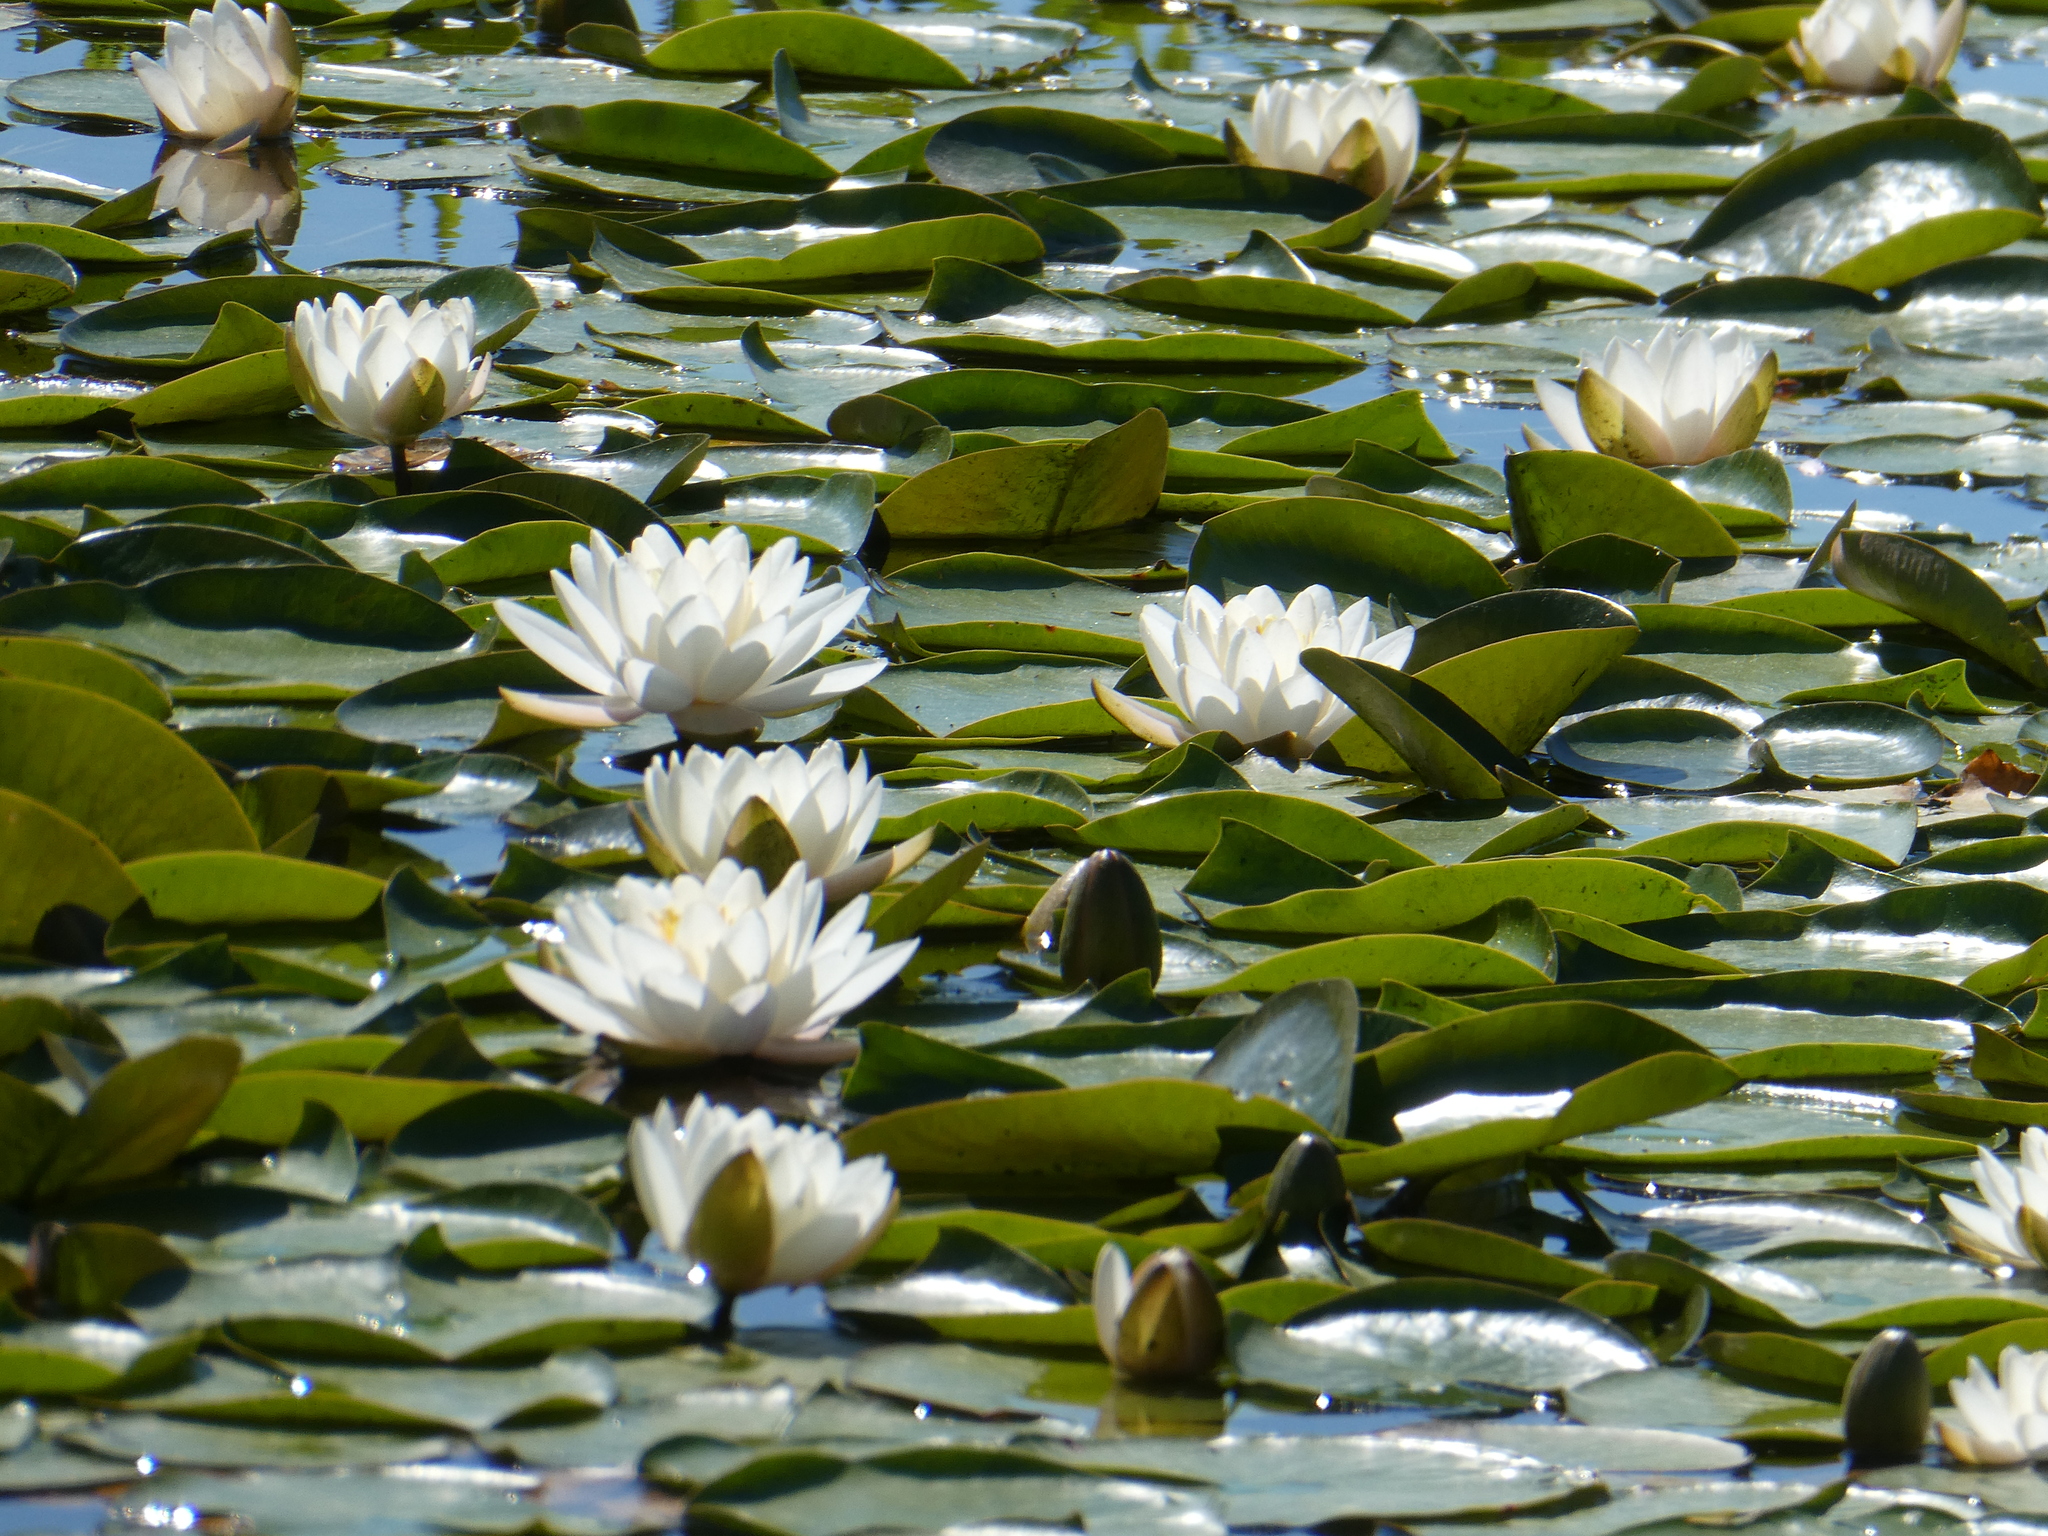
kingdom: Plantae
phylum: Tracheophyta
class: Magnoliopsida
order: Nymphaeales
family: Nymphaeaceae
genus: Nymphaea
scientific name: Nymphaea odorata
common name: Fragrant water-lily
